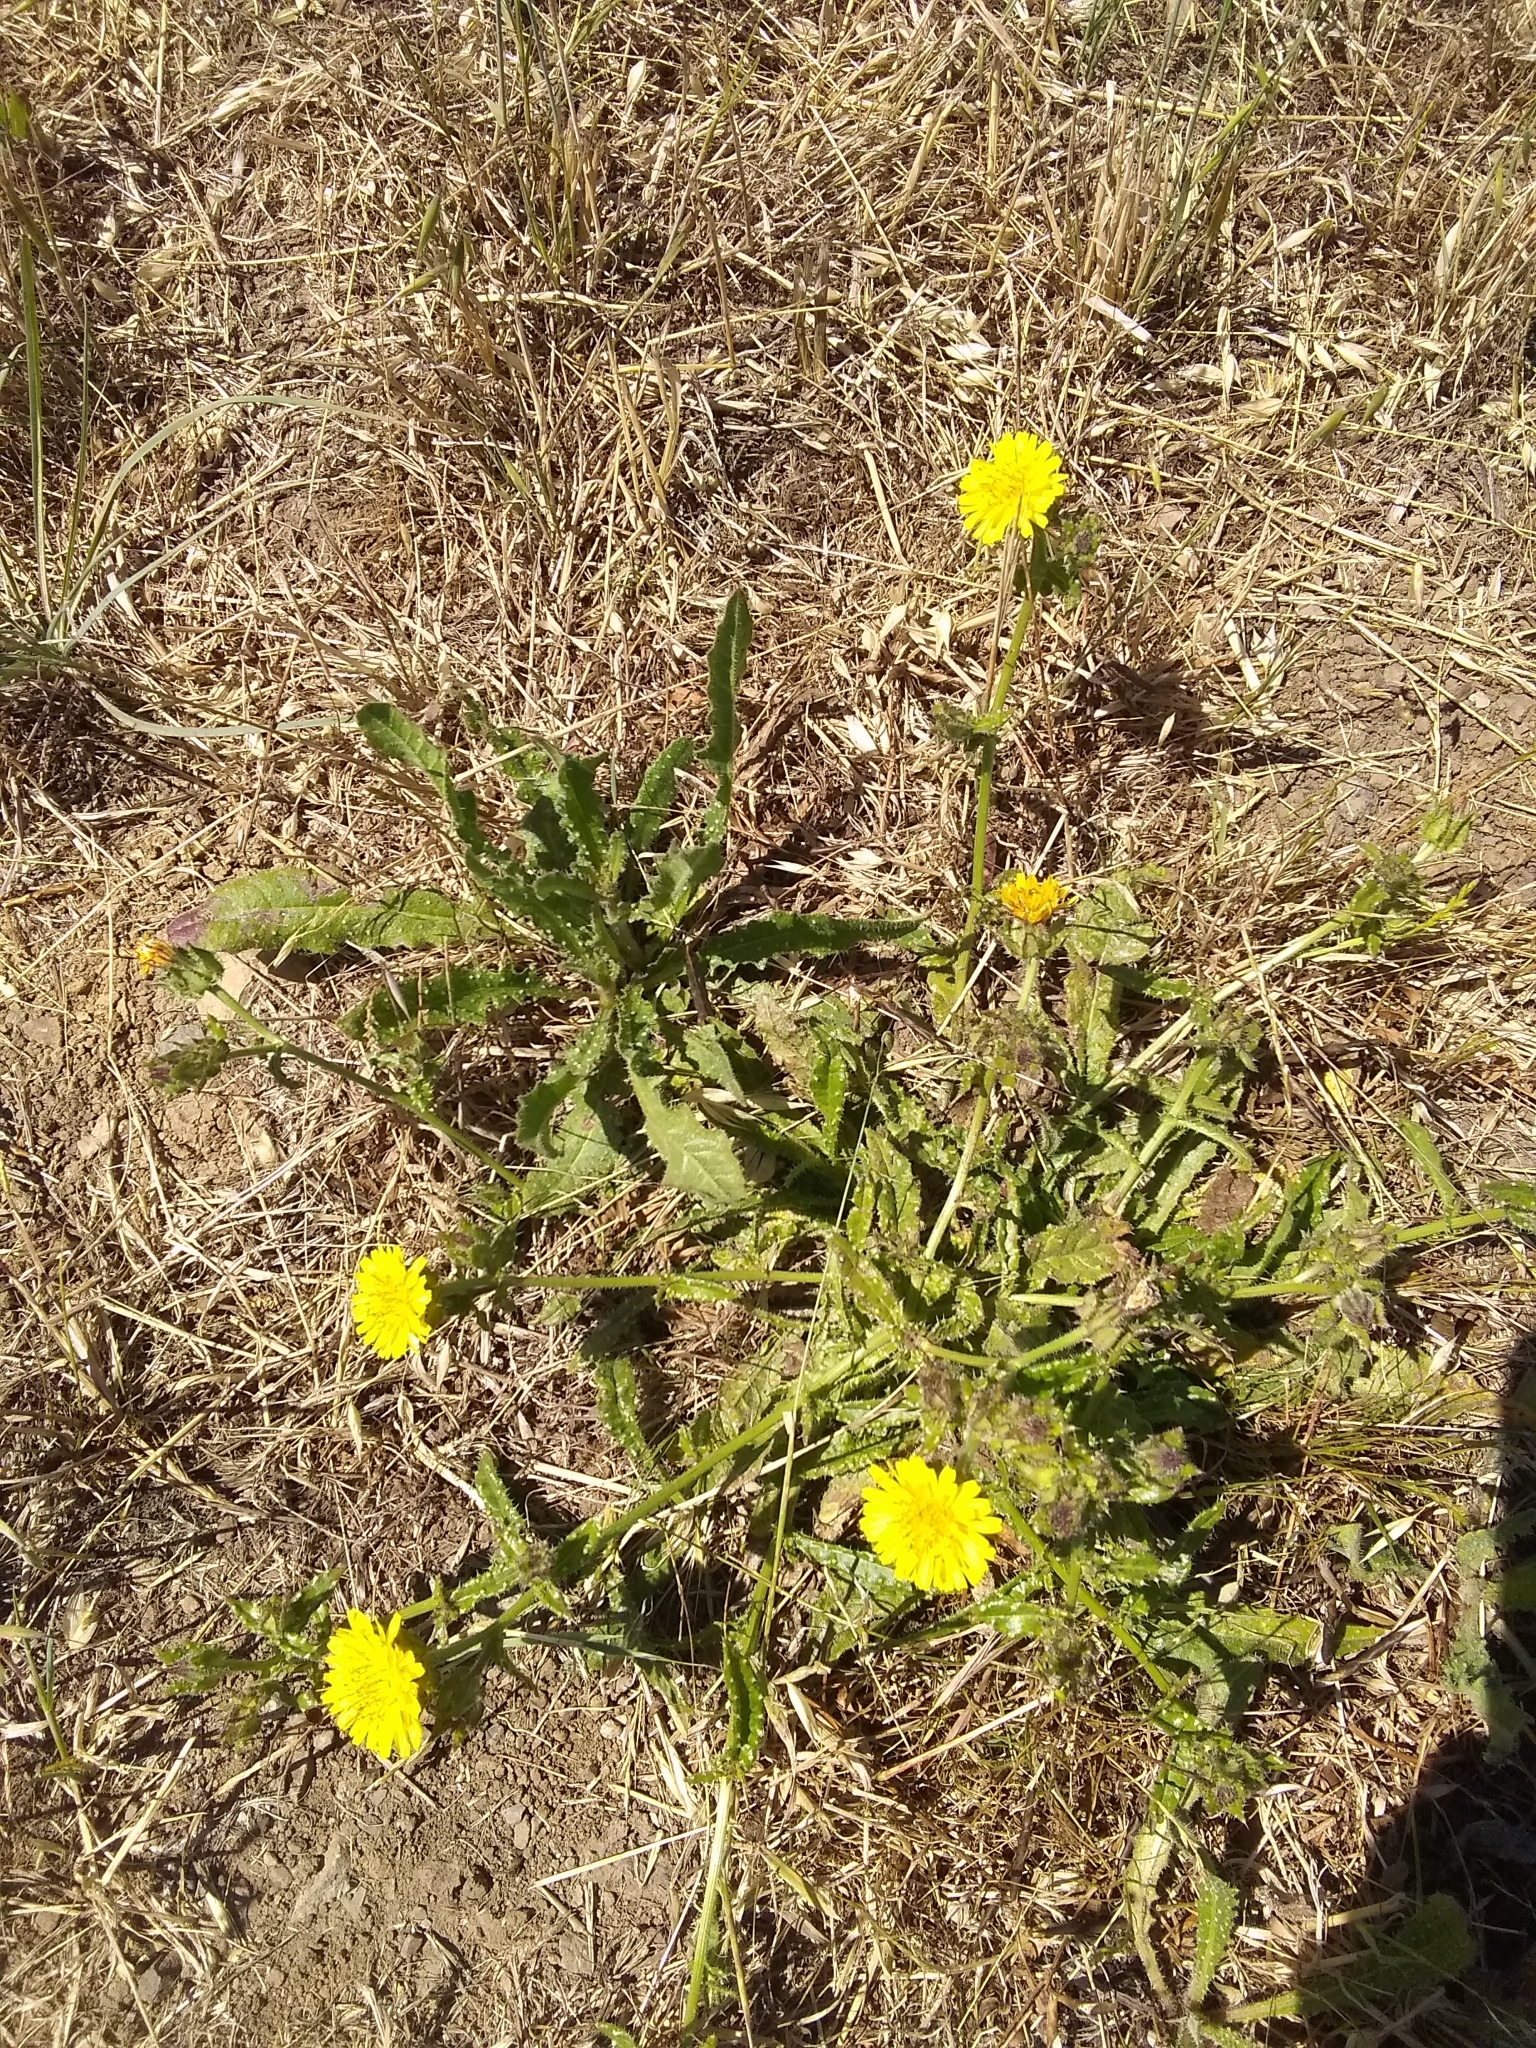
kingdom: Plantae
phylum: Tracheophyta
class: Magnoliopsida
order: Asterales
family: Asteraceae
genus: Helminthotheca
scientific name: Helminthotheca echioides
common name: Ox-tongue
